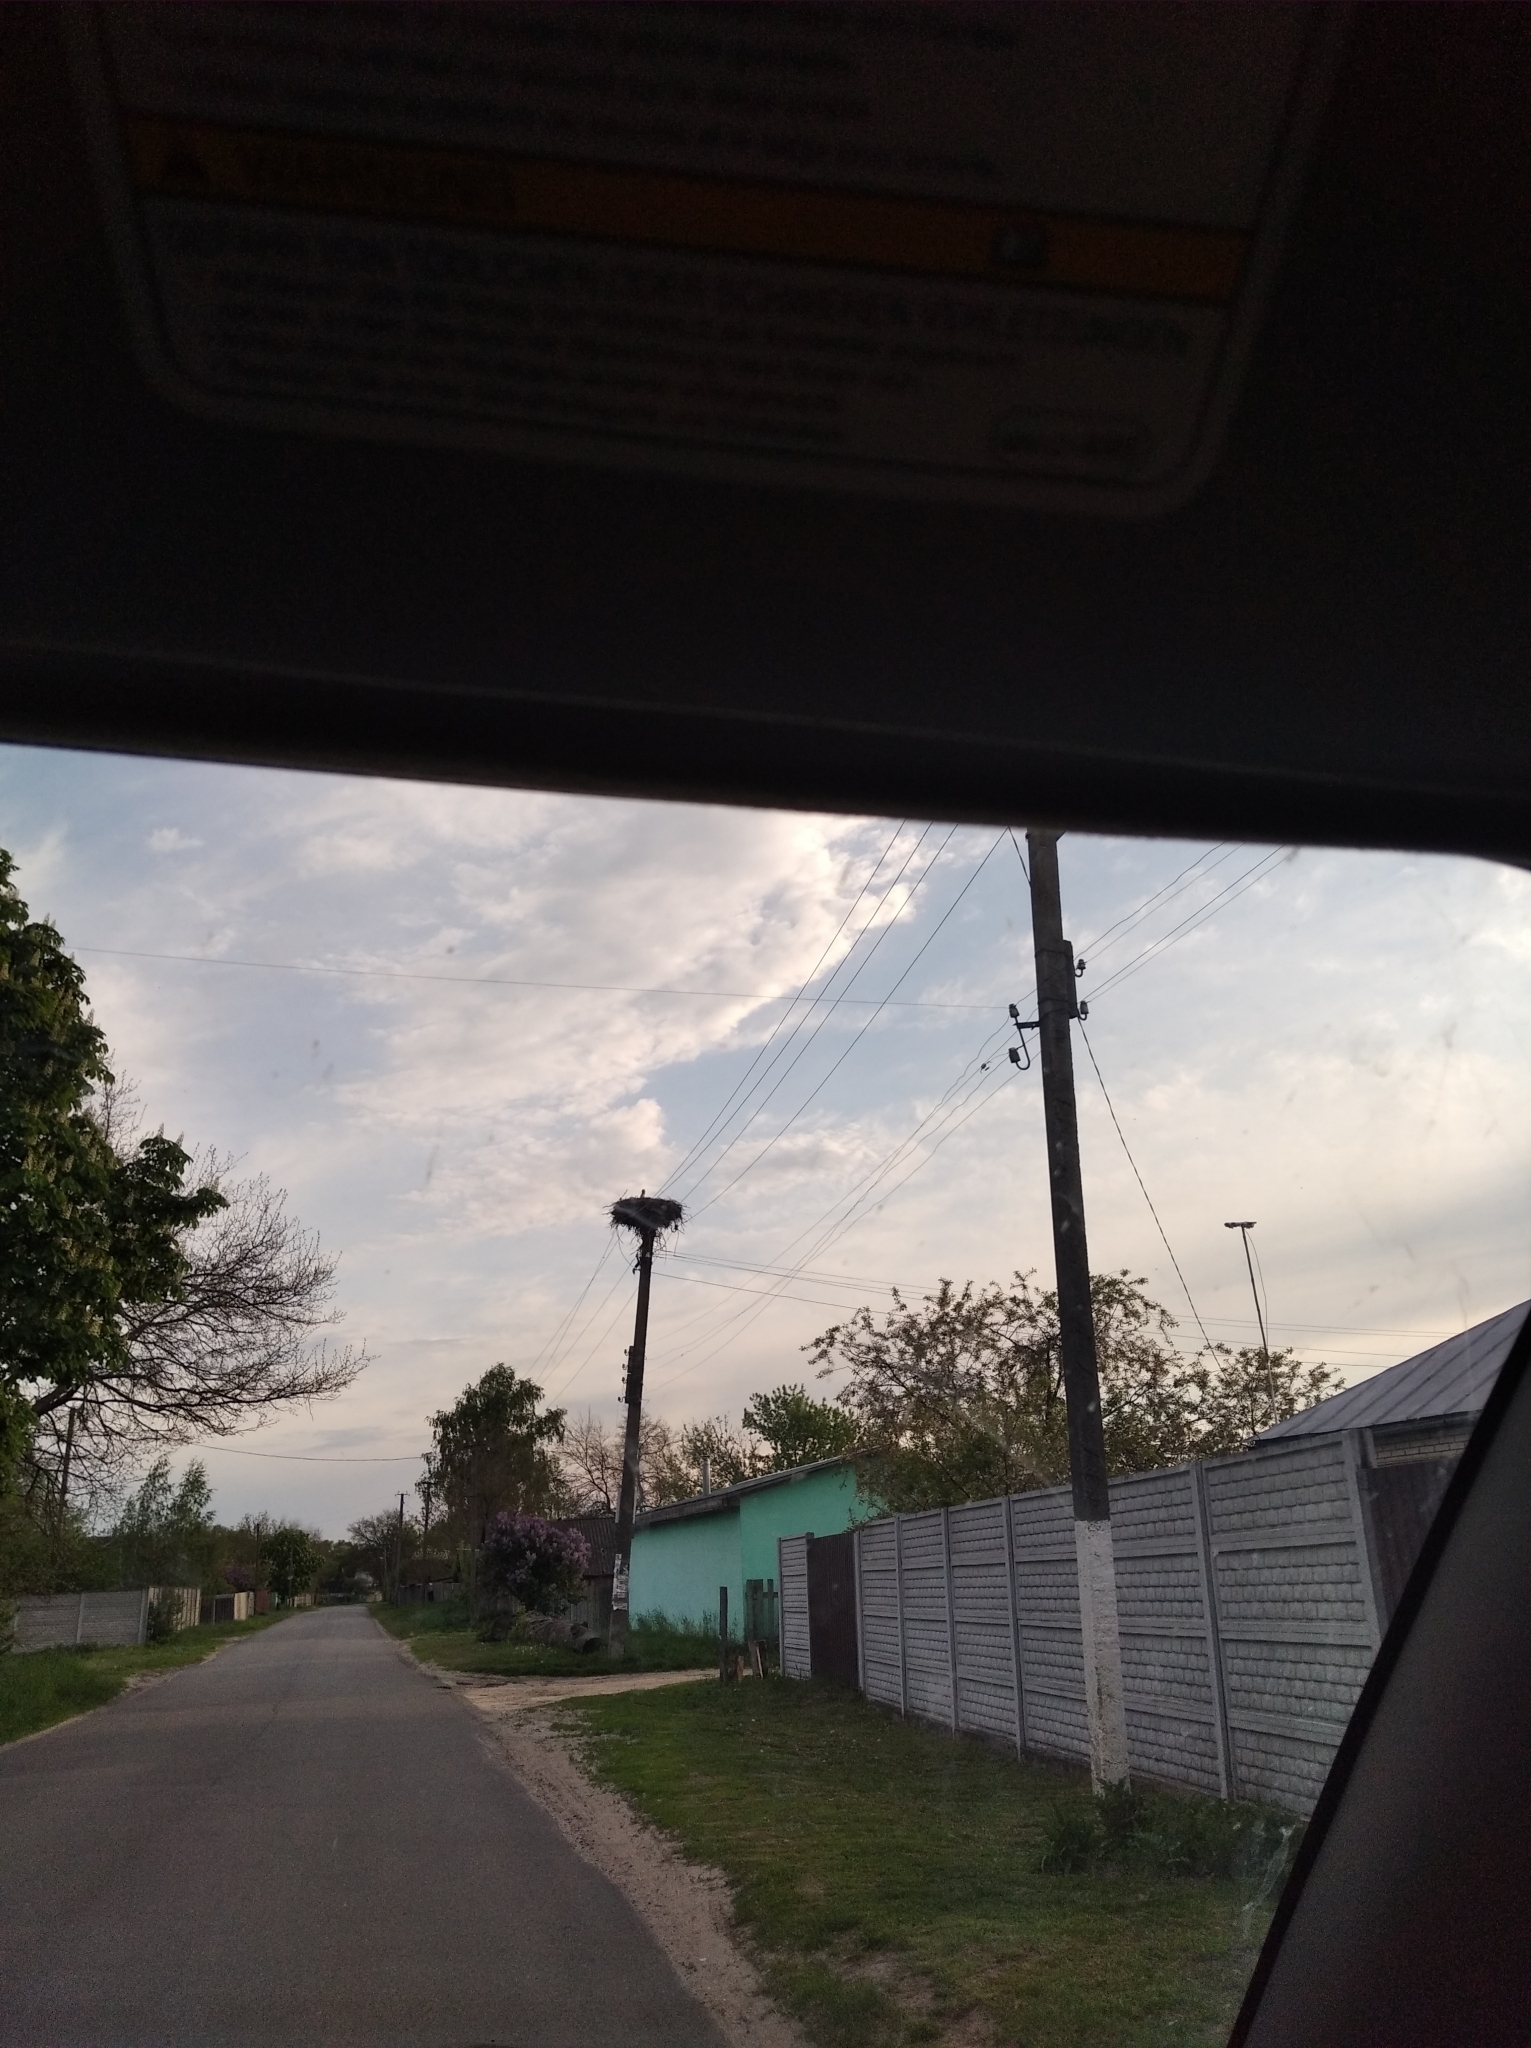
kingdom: Animalia
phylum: Chordata
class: Aves
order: Ciconiiformes
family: Ciconiidae
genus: Ciconia
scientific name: Ciconia ciconia
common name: White stork
